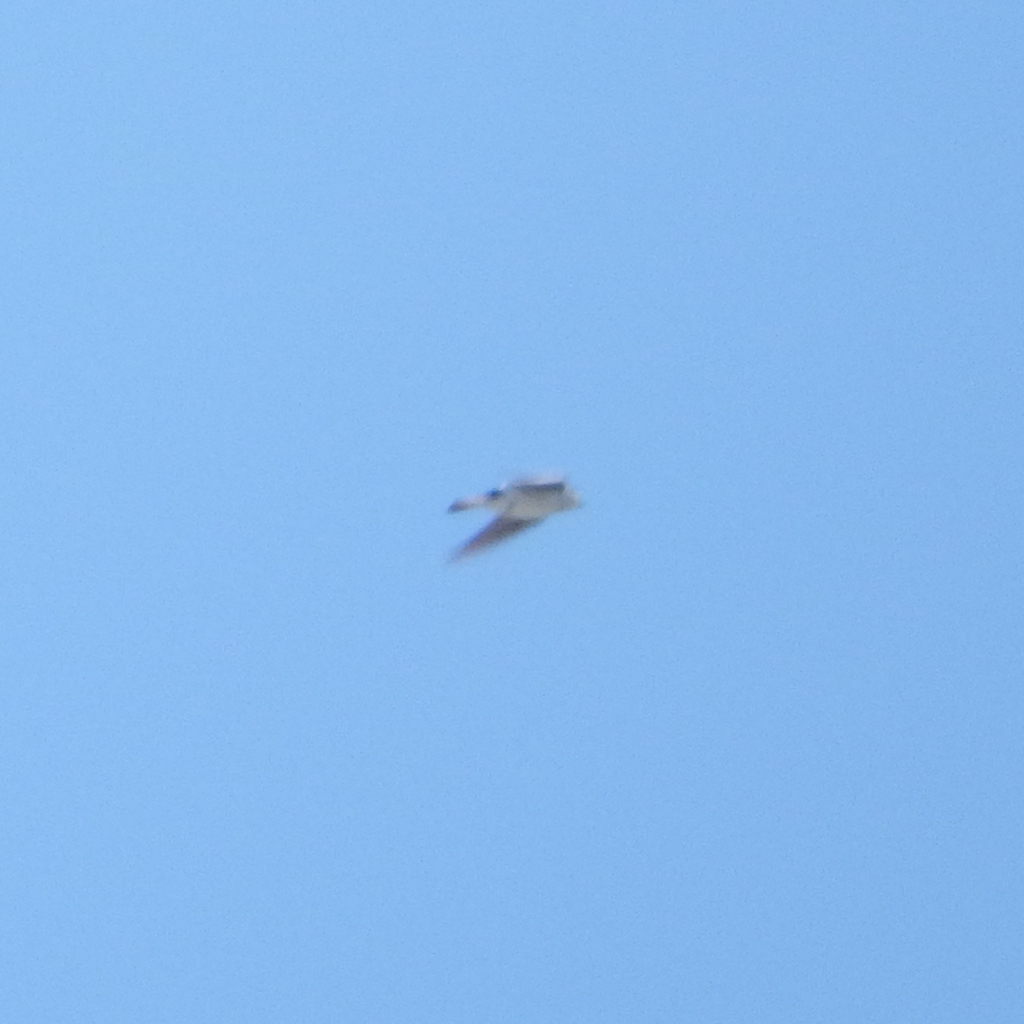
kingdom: Animalia
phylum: Chordata
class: Aves
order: Passeriformes
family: Hirundinidae
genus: Tachycineta
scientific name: Tachycineta bicolor
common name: Tree swallow
